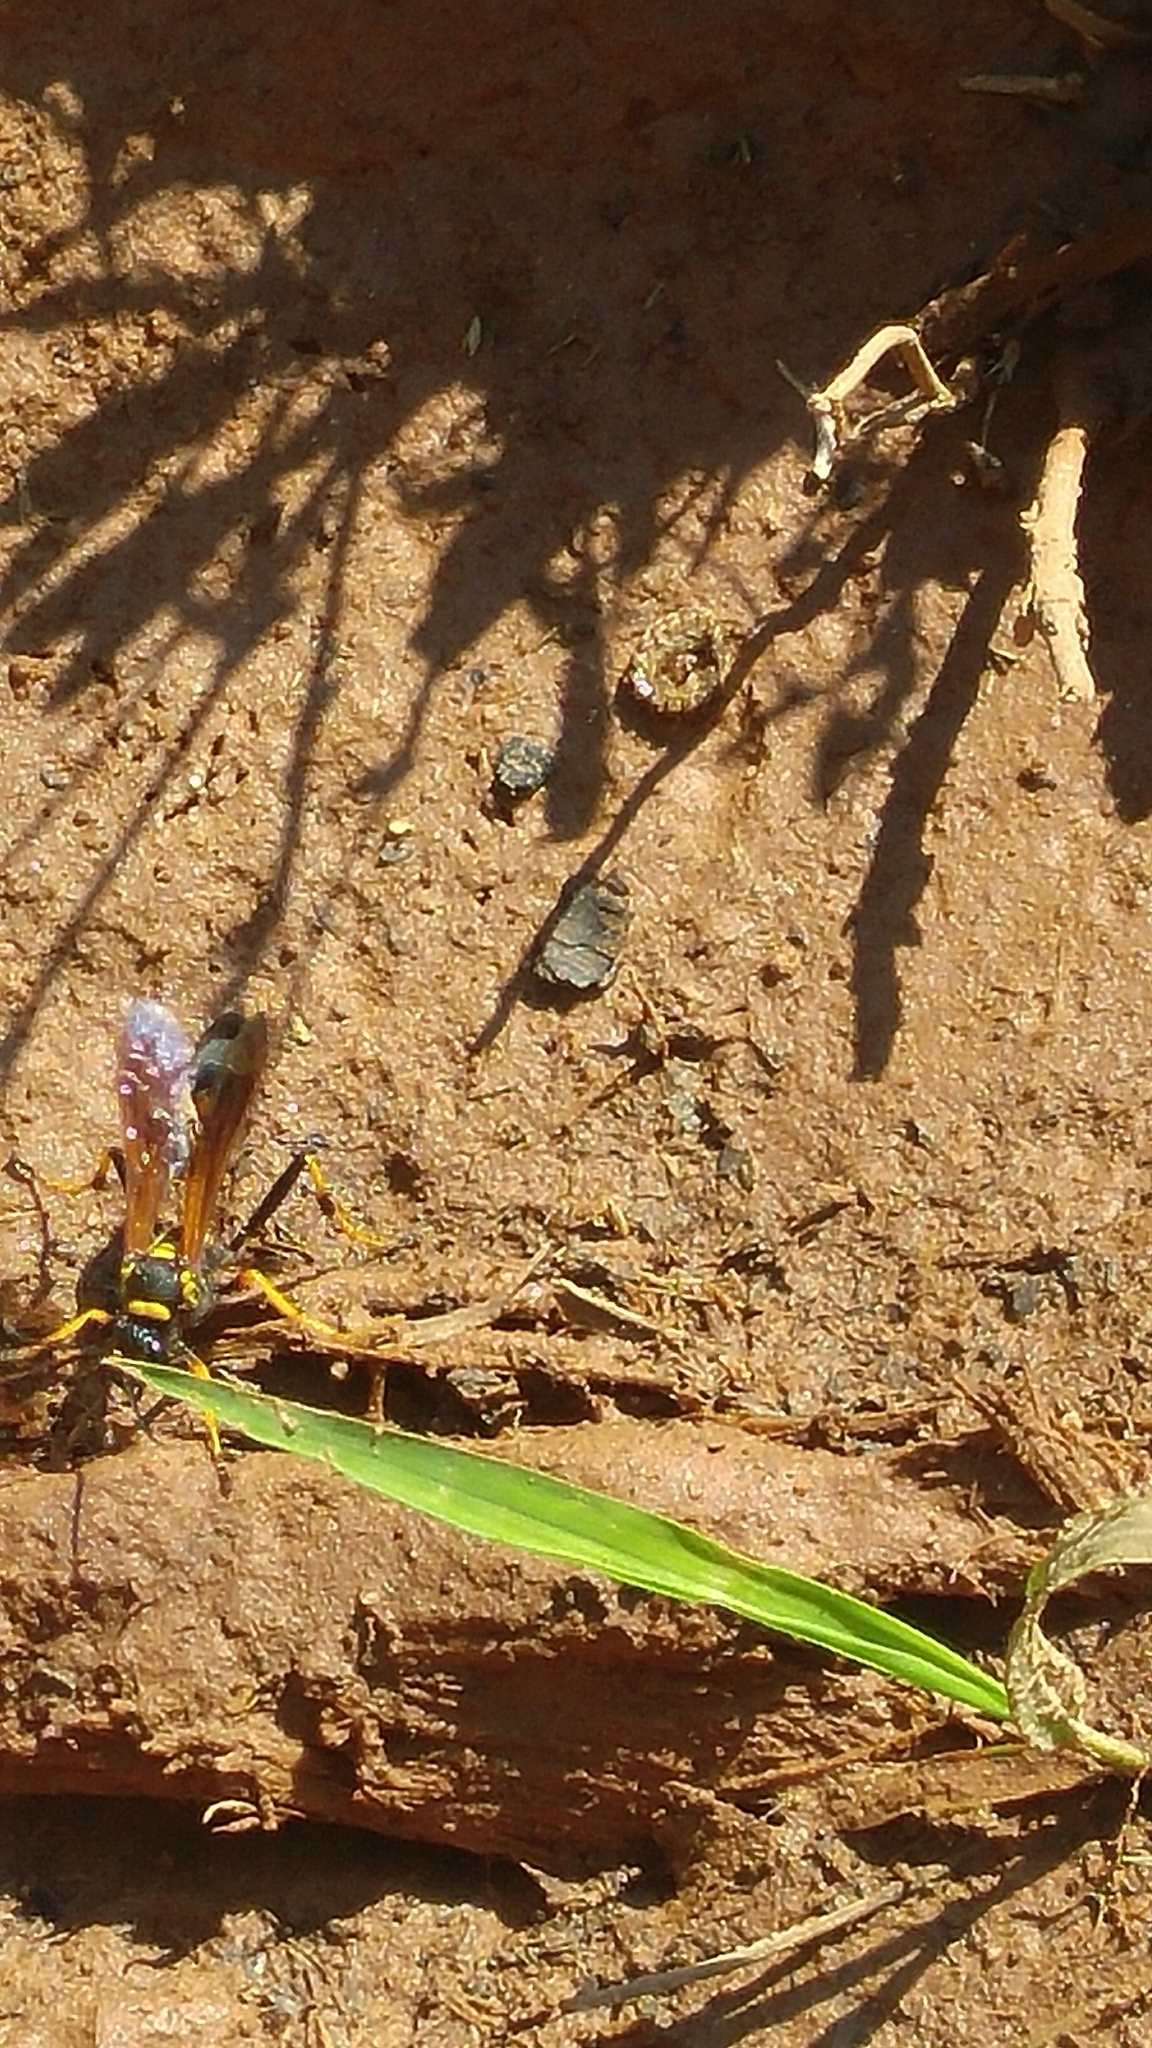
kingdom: Animalia
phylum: Arthropoda
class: Insecta
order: Hymenoptera
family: Sphecidae
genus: Sceliphron
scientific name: Sceliphron caementarium
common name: Mud dauber
